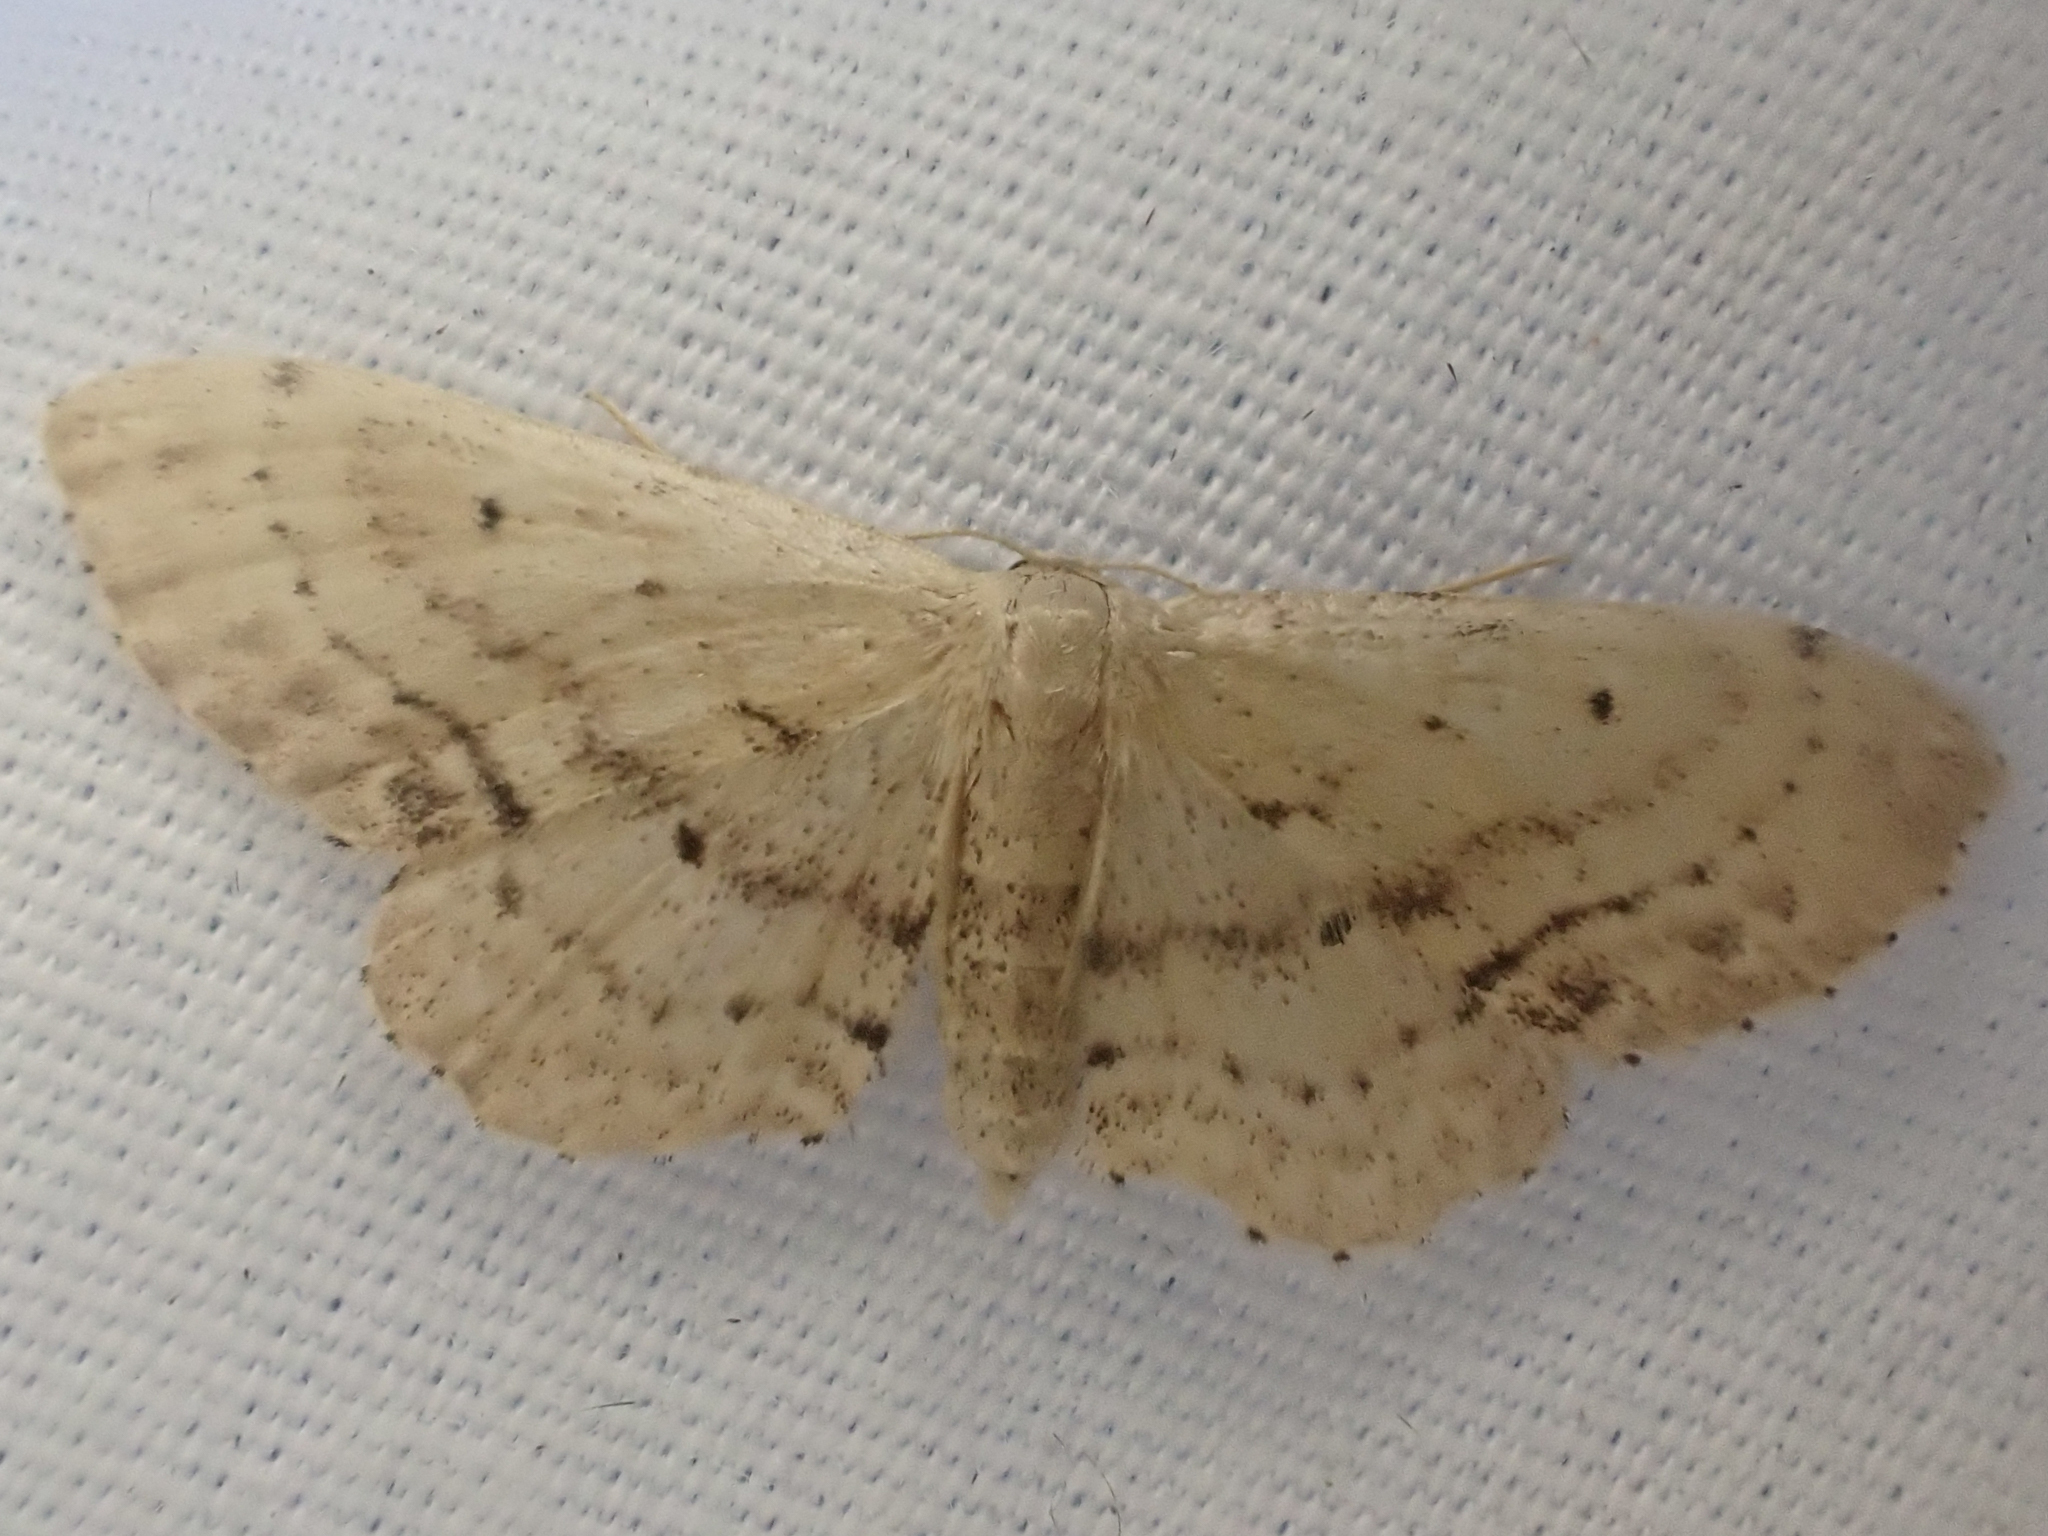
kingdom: Animalia
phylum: Arthropoda
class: Insecta
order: Lepidoptera
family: Geometridae
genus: Idaea
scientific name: Idaea dimidiata
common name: Single-dotted wave
